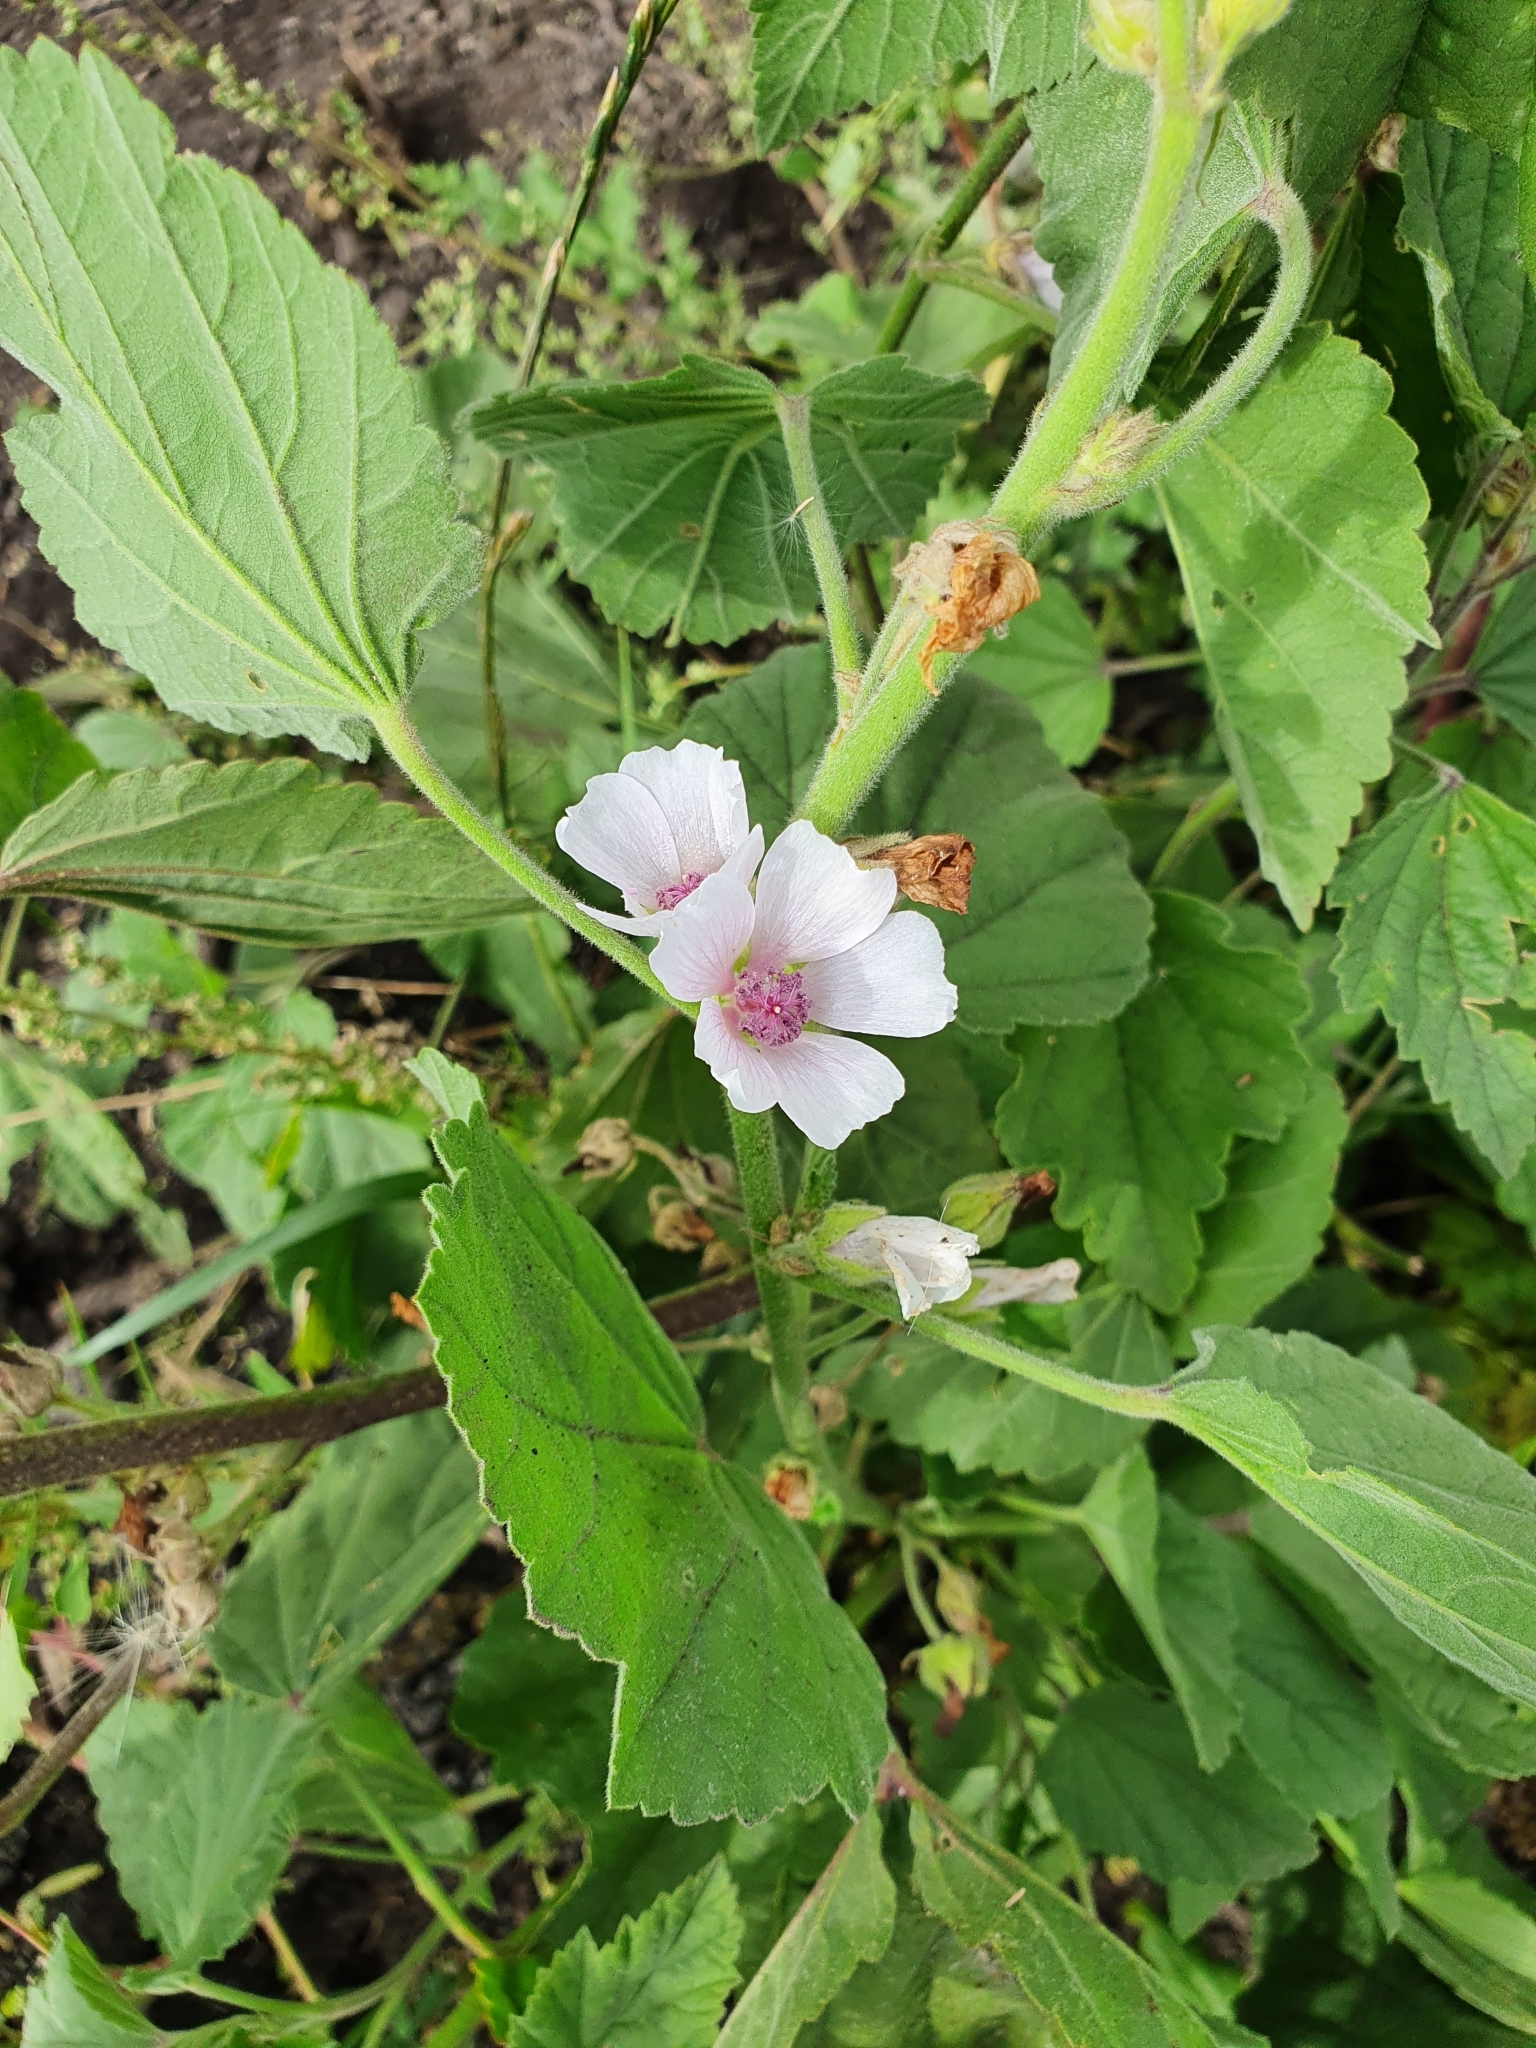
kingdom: Plantae
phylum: Tracheophyta
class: Magnoliopsida
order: Malvales
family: Malvaceae
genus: Althaea
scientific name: Althaea officinalis
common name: Marsh-mallow
